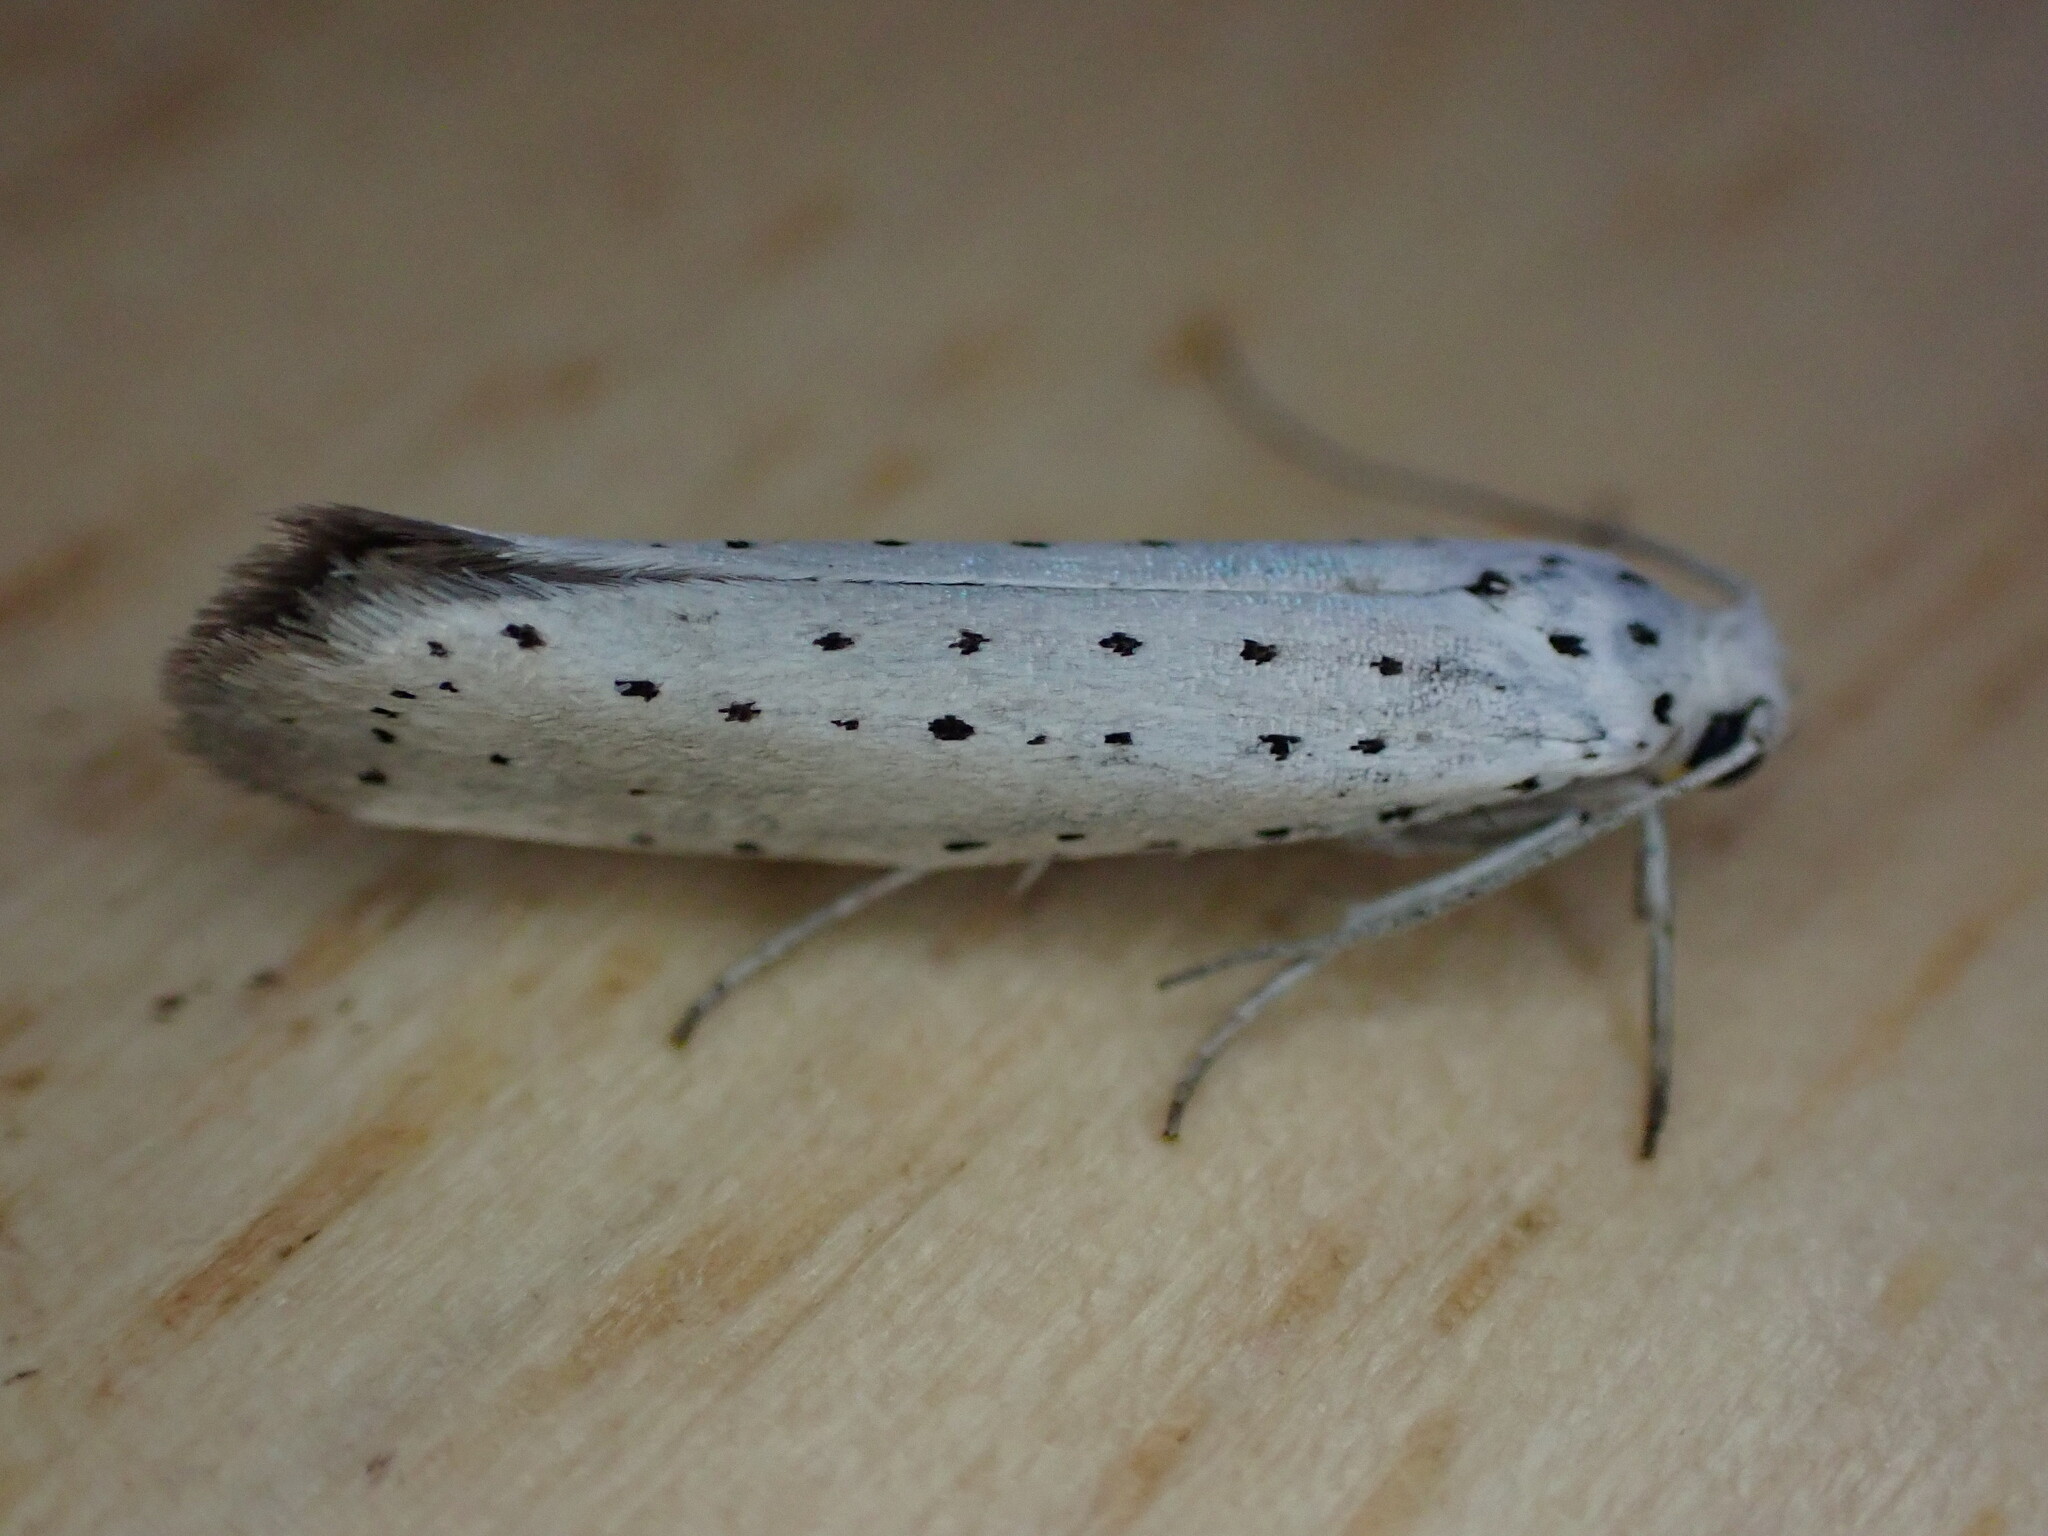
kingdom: Animalia
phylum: Arthropoda
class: Insecta
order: Lepidoptera
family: Yponomeutidae
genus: Yponomeuta
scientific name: Yponomeuta padella
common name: Orchard ermine
